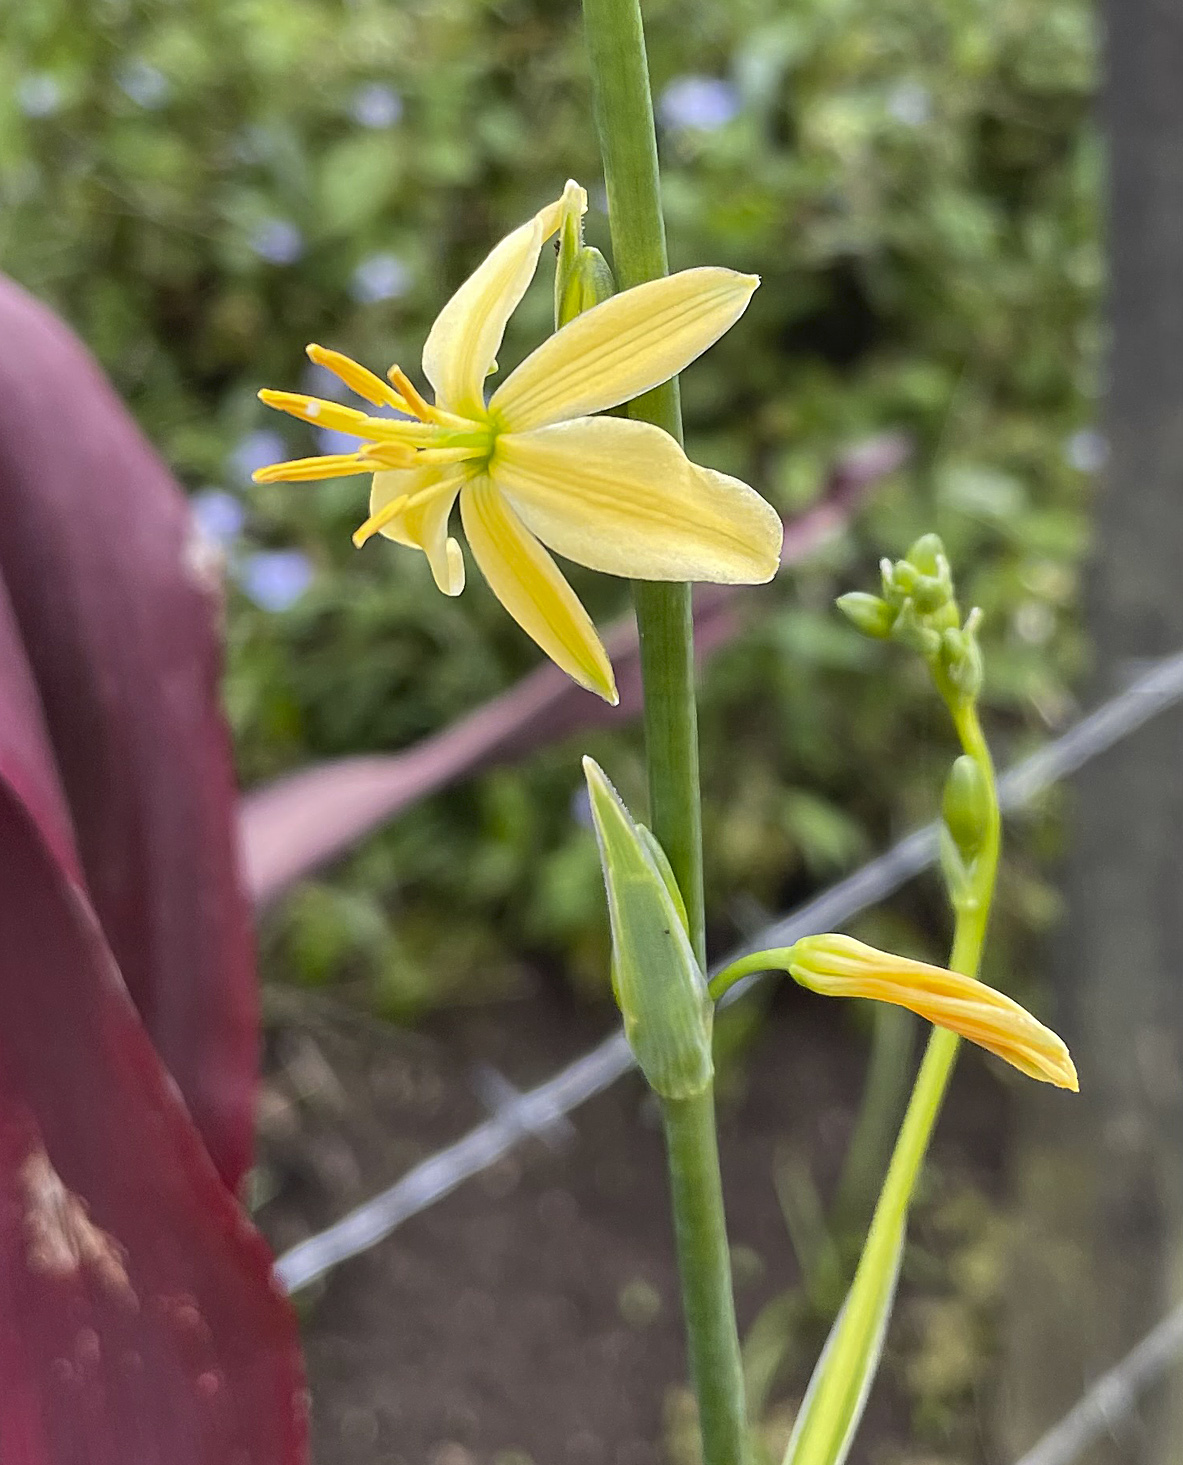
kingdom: Plantae
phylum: Tracheophyta
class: Liliopsida
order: Asparagales
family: Asparagaceae
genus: Echeandia
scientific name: Echeandia matudae
